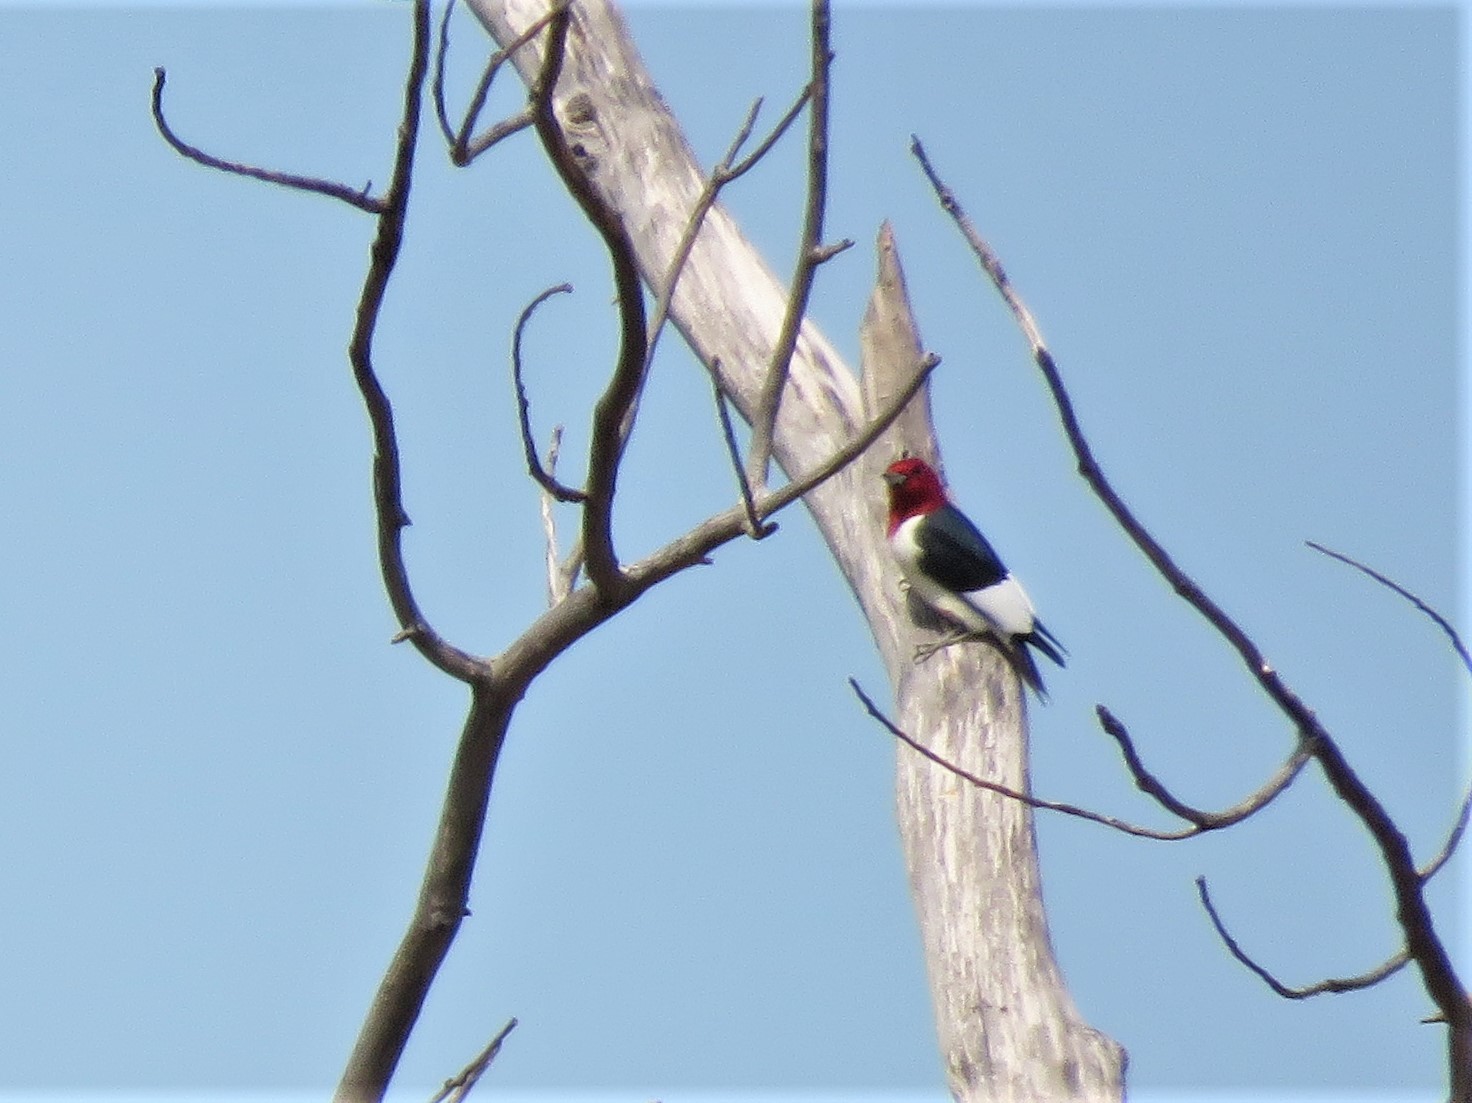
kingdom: Animalia
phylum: Chordata
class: Aves
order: Piciformes
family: Picidae
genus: Melanerpes
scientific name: Melanerpes erythrocephalus
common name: Red-headed woodpecker
